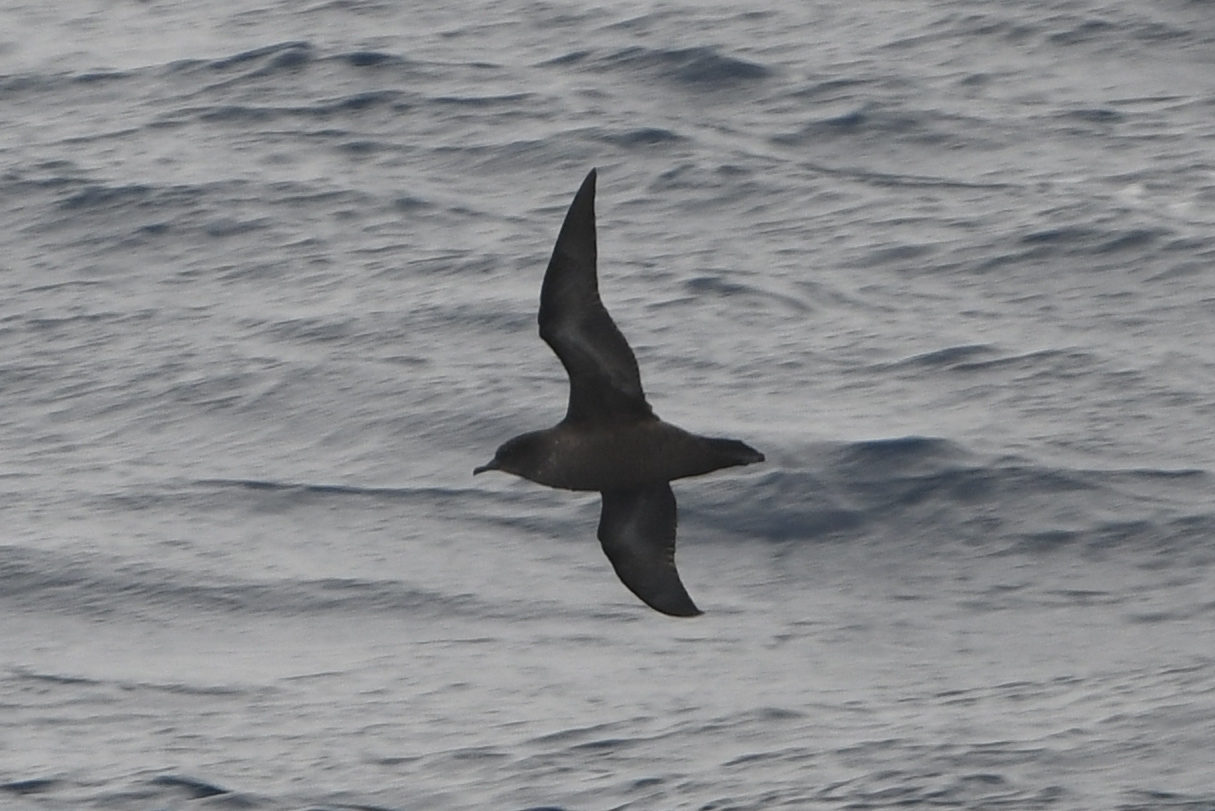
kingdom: Animalia
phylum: Chordata
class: Aves
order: Procellariiformes
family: Procellariidae
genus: Puffinus
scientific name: Puffinus tenuirostris
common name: Short-tailed shearwater
